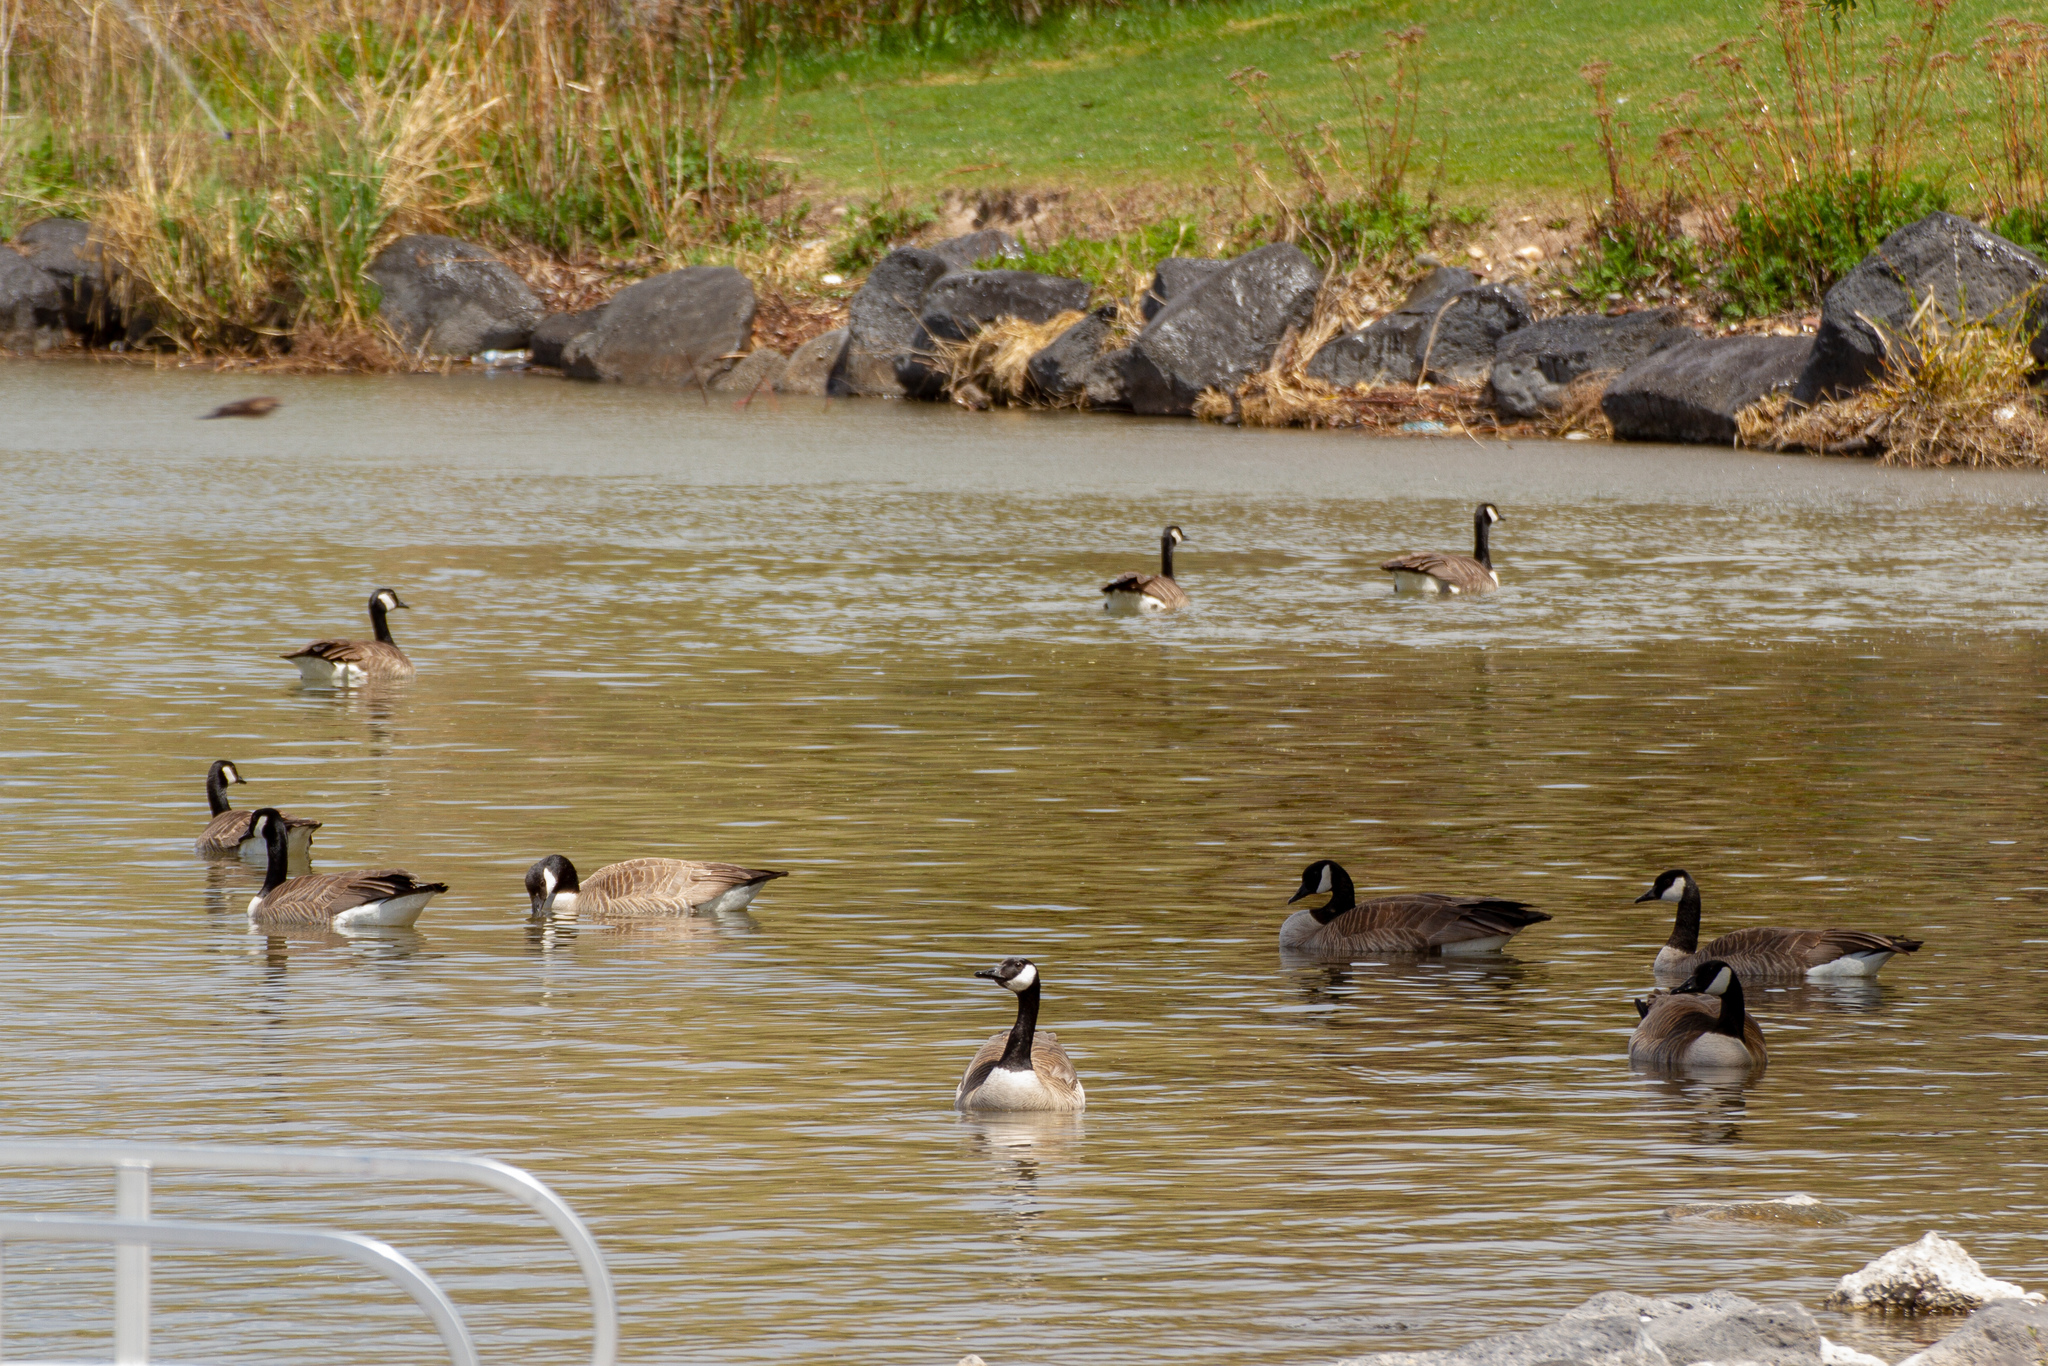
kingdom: Animalia
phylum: Chordata
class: Aves
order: Anseriformes
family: Anatidae
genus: Branta
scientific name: Branta canadensis
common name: Canada goose
